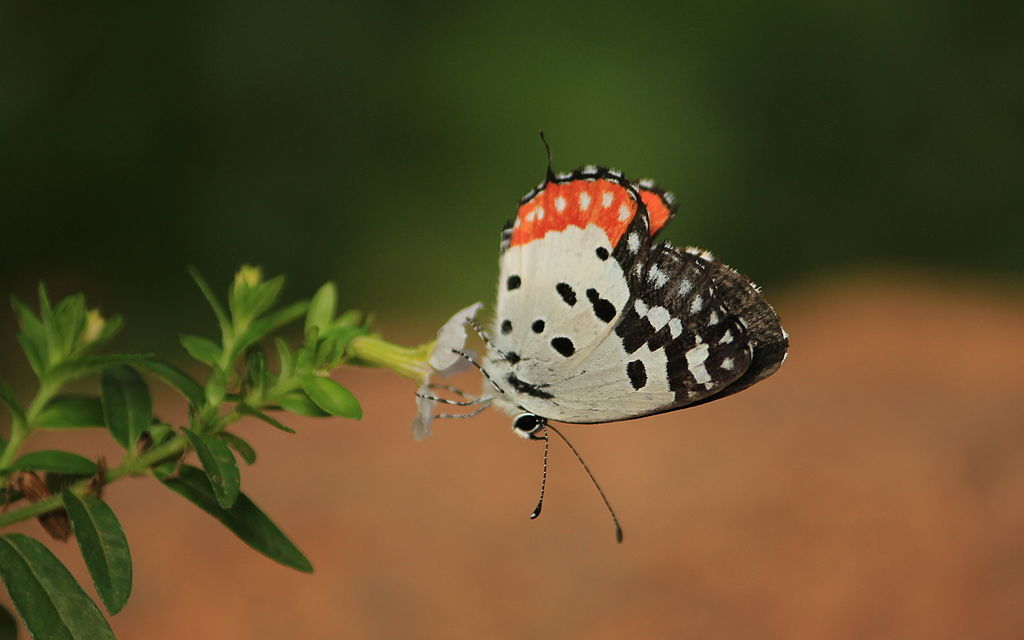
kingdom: Animalia
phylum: Arthropoda
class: Insecta
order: Lepidoptera
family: Lycaenidae
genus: Talicada
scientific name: Talicada nyseus
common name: Red pierrot
